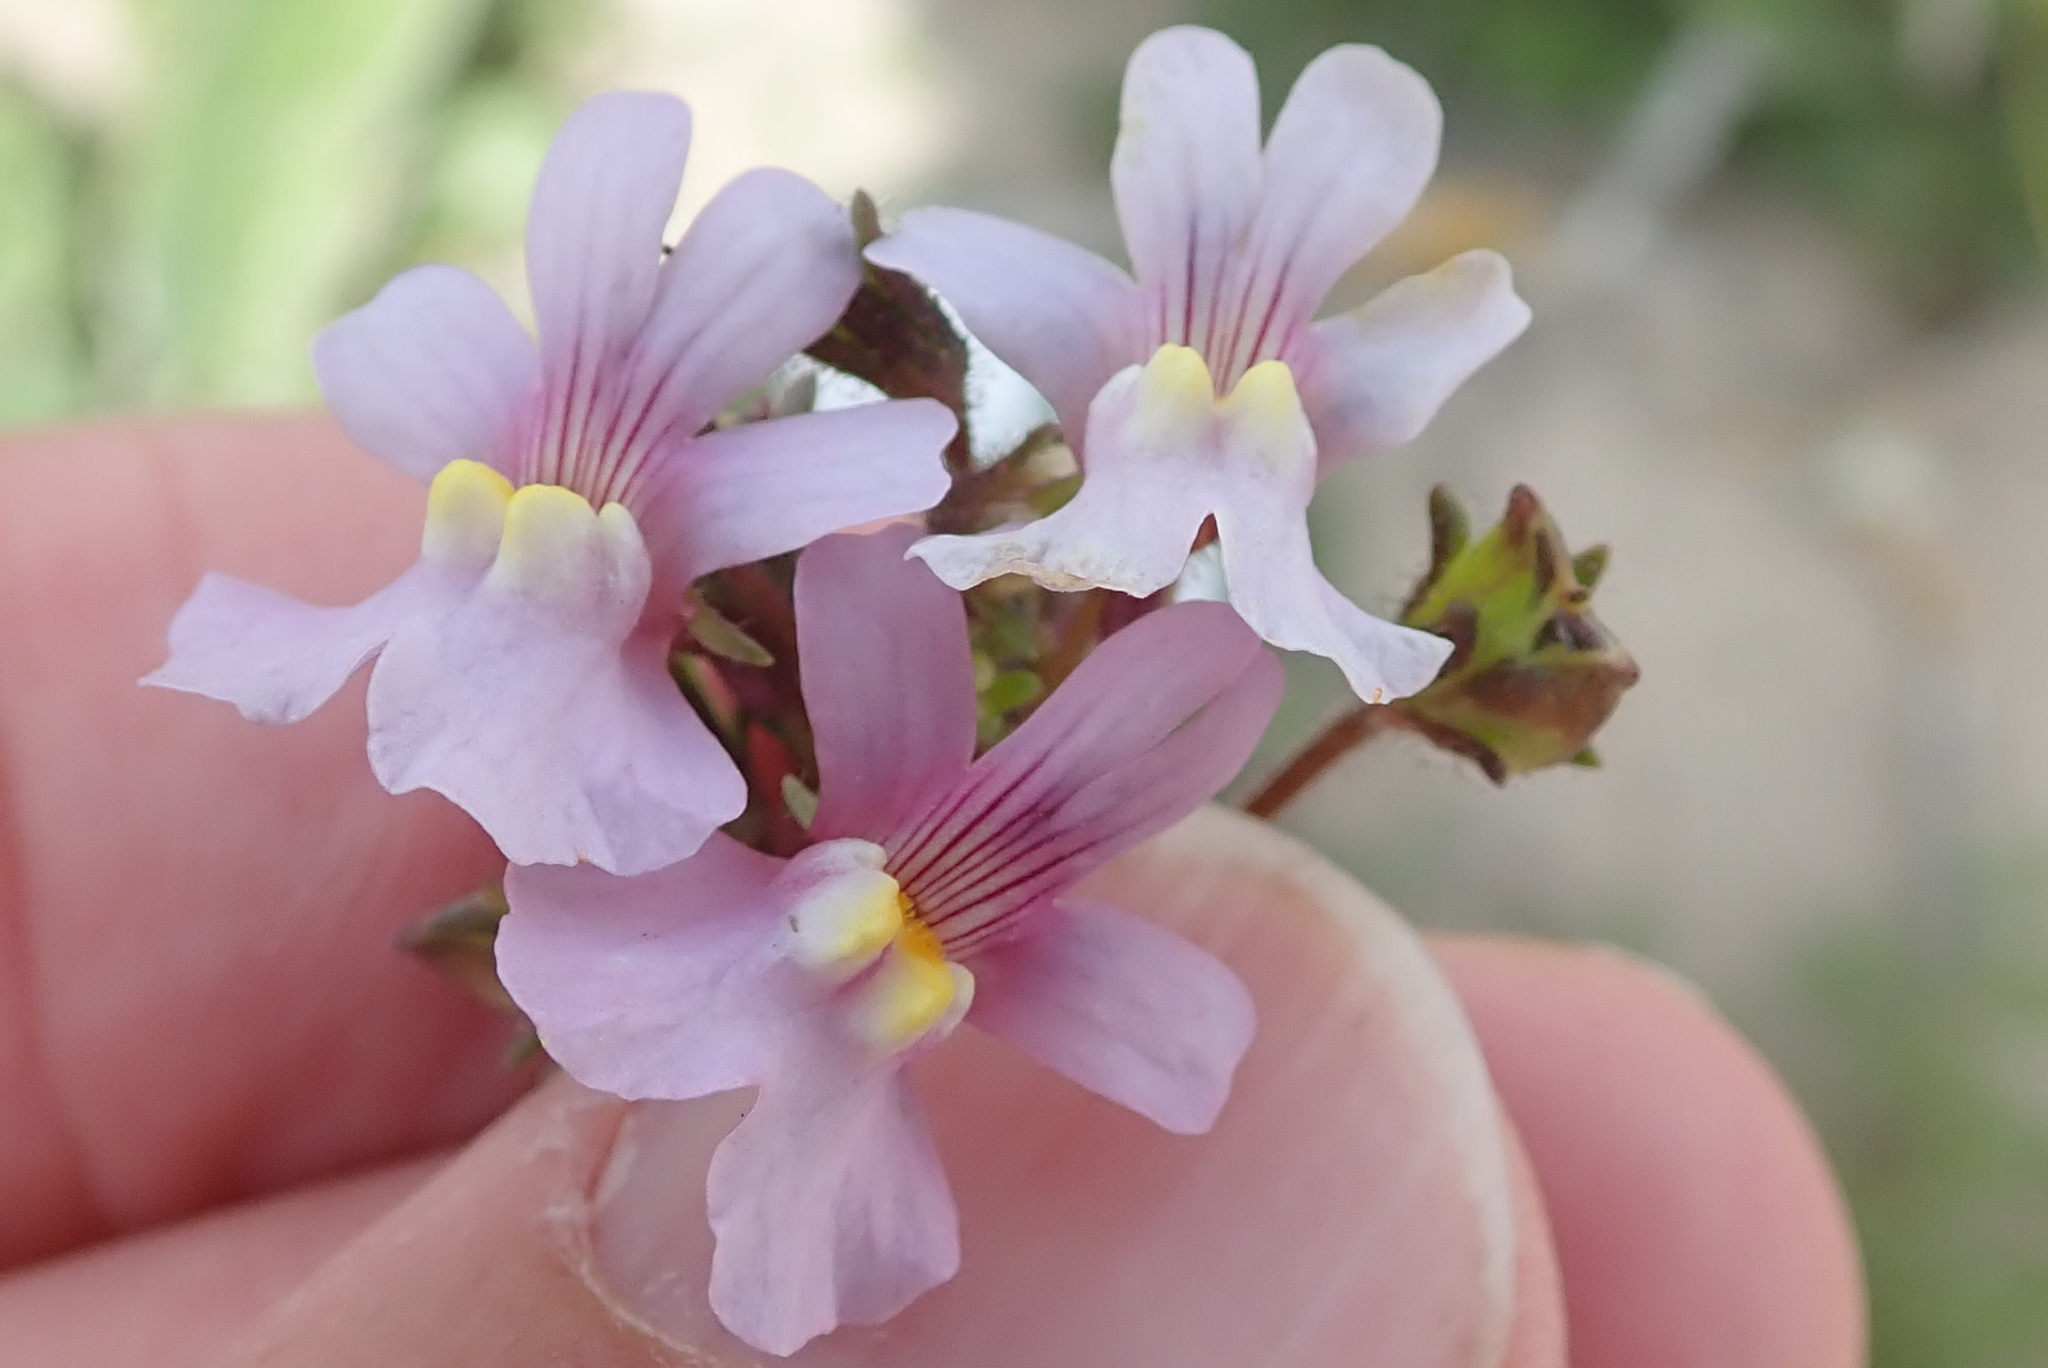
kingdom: Plantae
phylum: Tracheophyta
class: Magnoliopsida
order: Lamiales
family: Scrophulariaceae
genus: Nemesia
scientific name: Nemesia affinis
